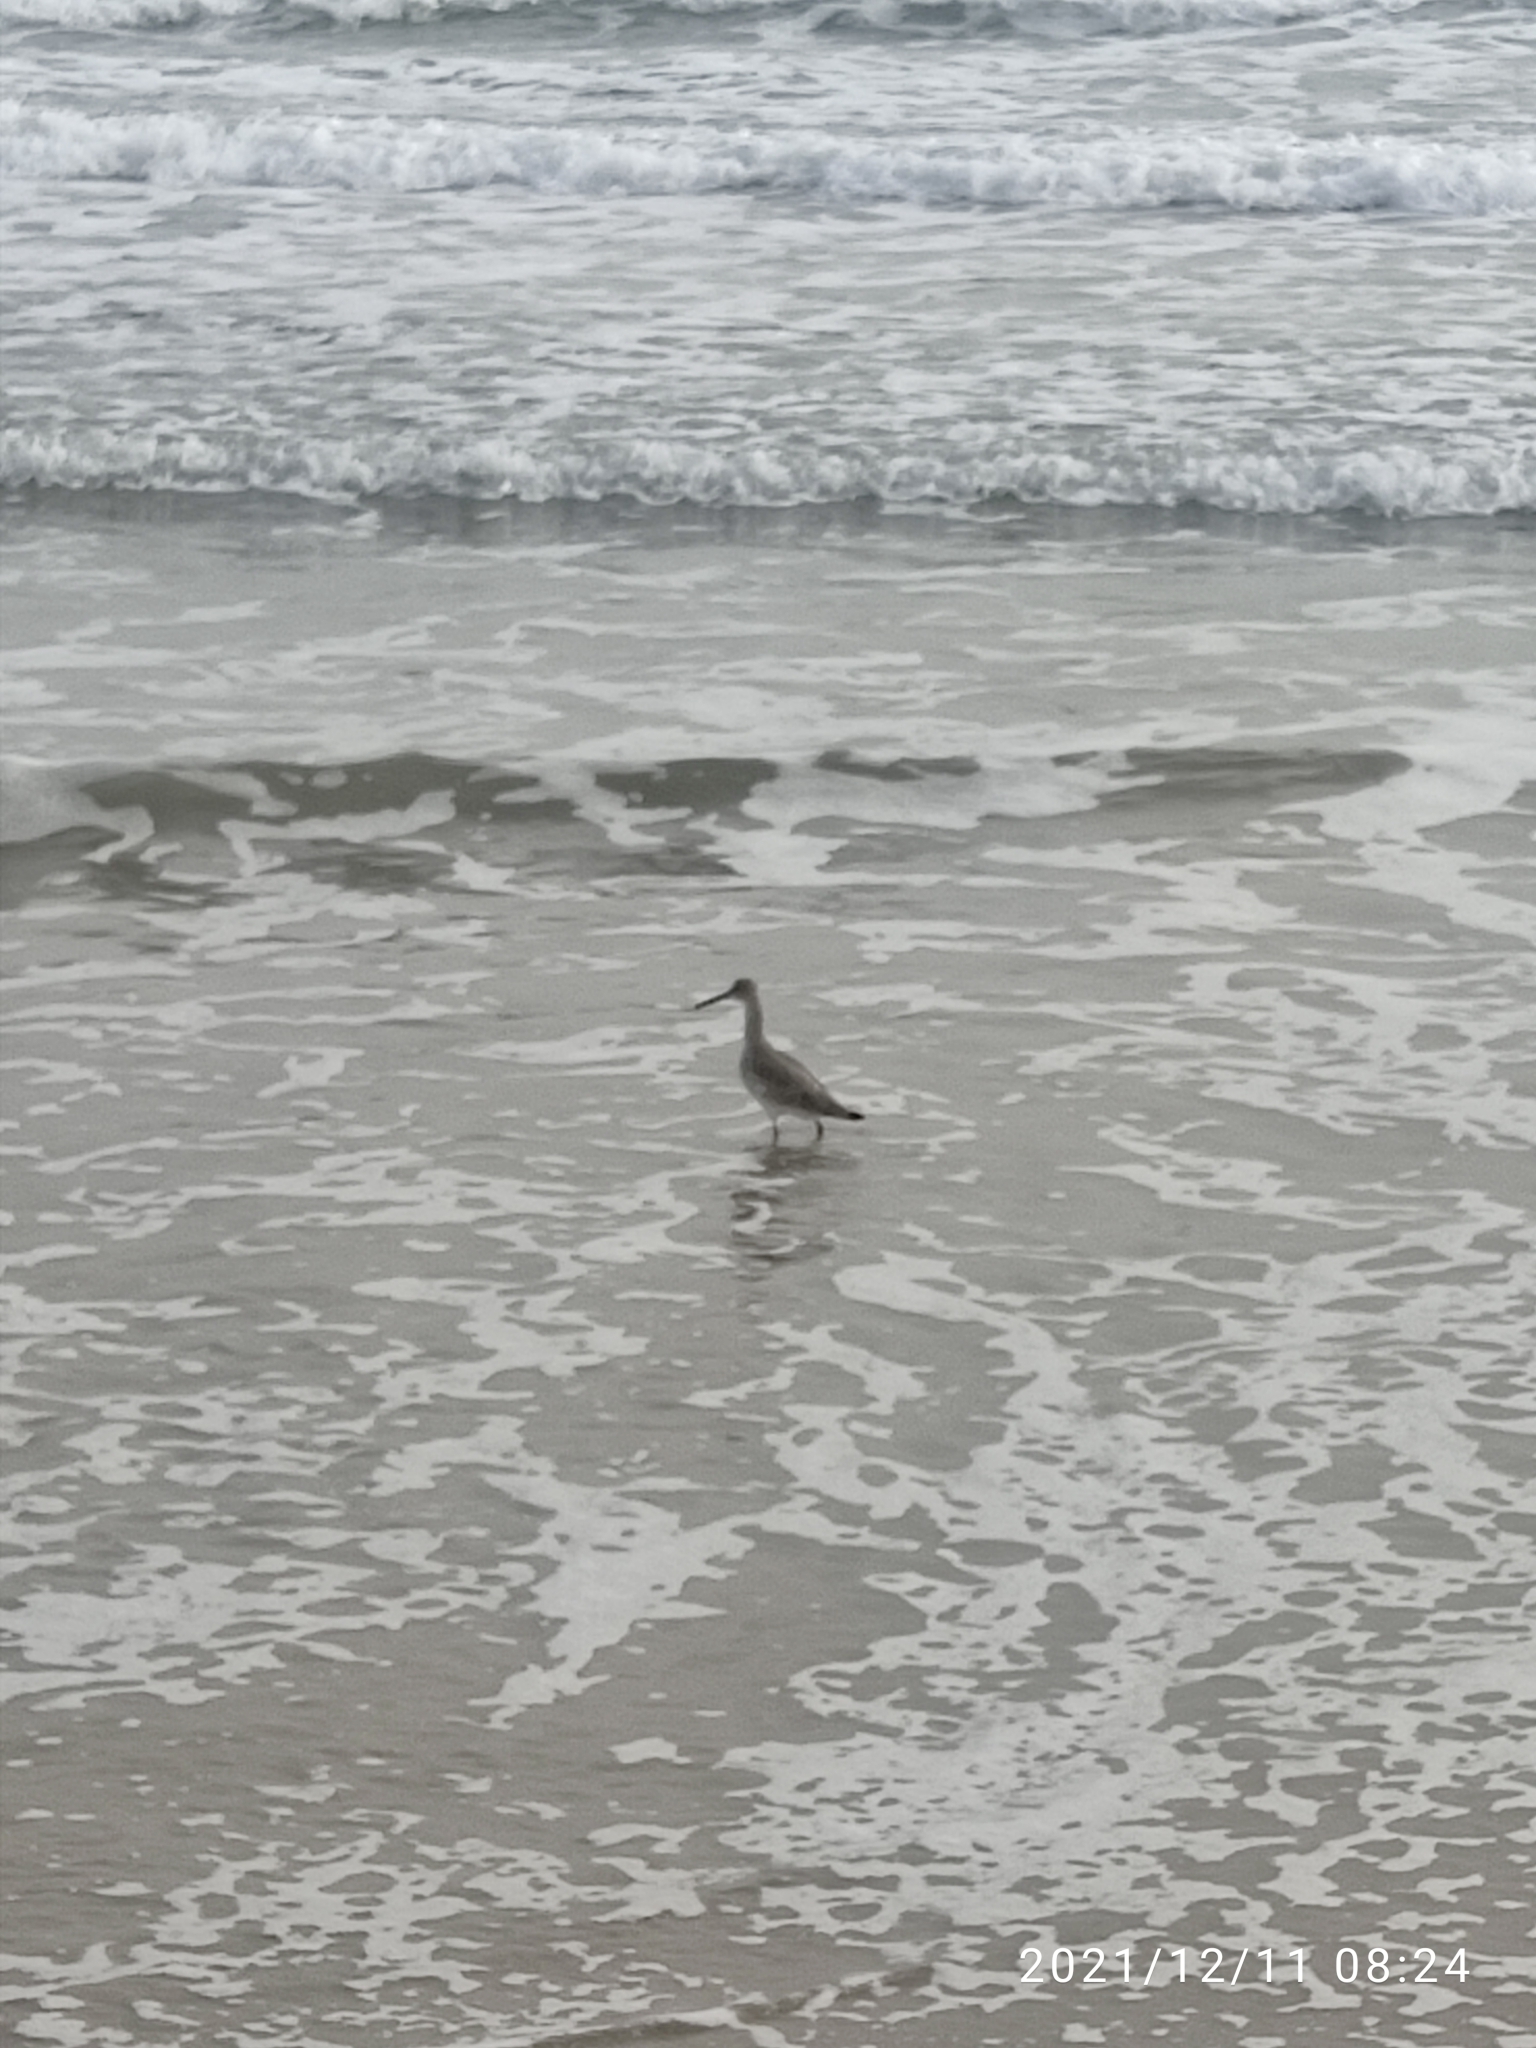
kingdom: Animalia
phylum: Chordata
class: Aves
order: Charadriiformes
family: Scolopacidae
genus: Tringa
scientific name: Tringa semipalmata
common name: Willet
